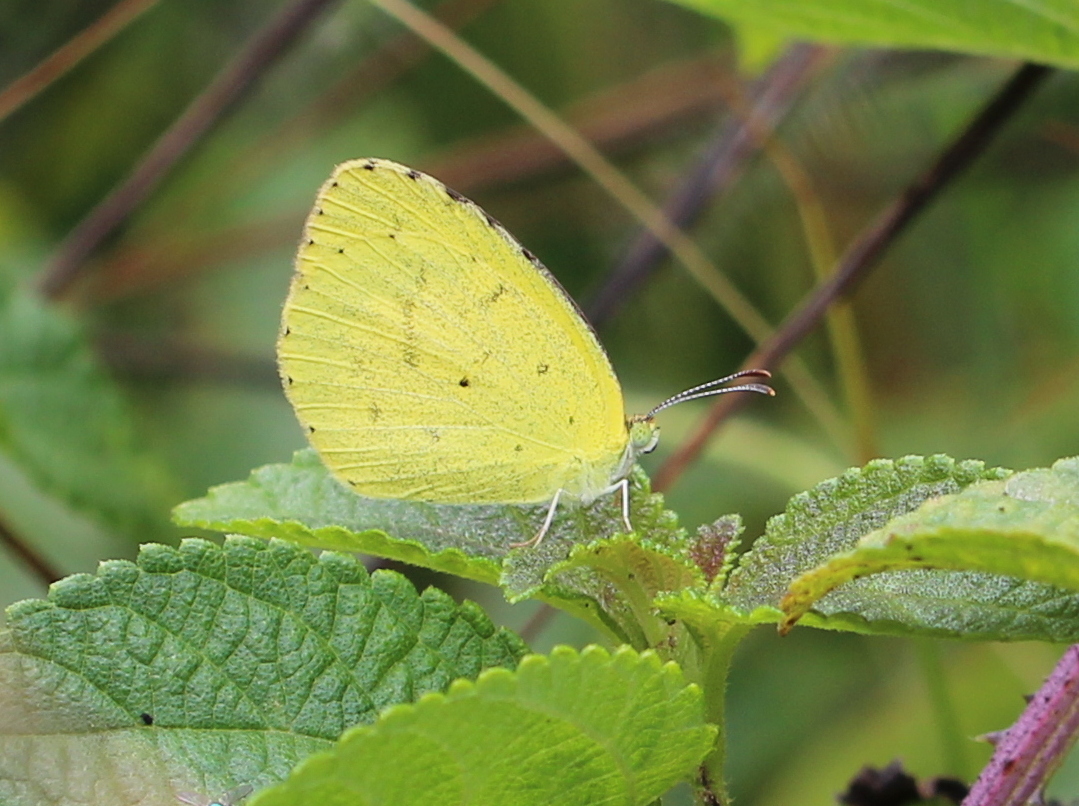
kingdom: Animalia
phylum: Arthropoda
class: Insecta
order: Lepidoptera
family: Pieridae
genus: Eurema
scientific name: Eurema brigitta
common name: Small grass yellow
